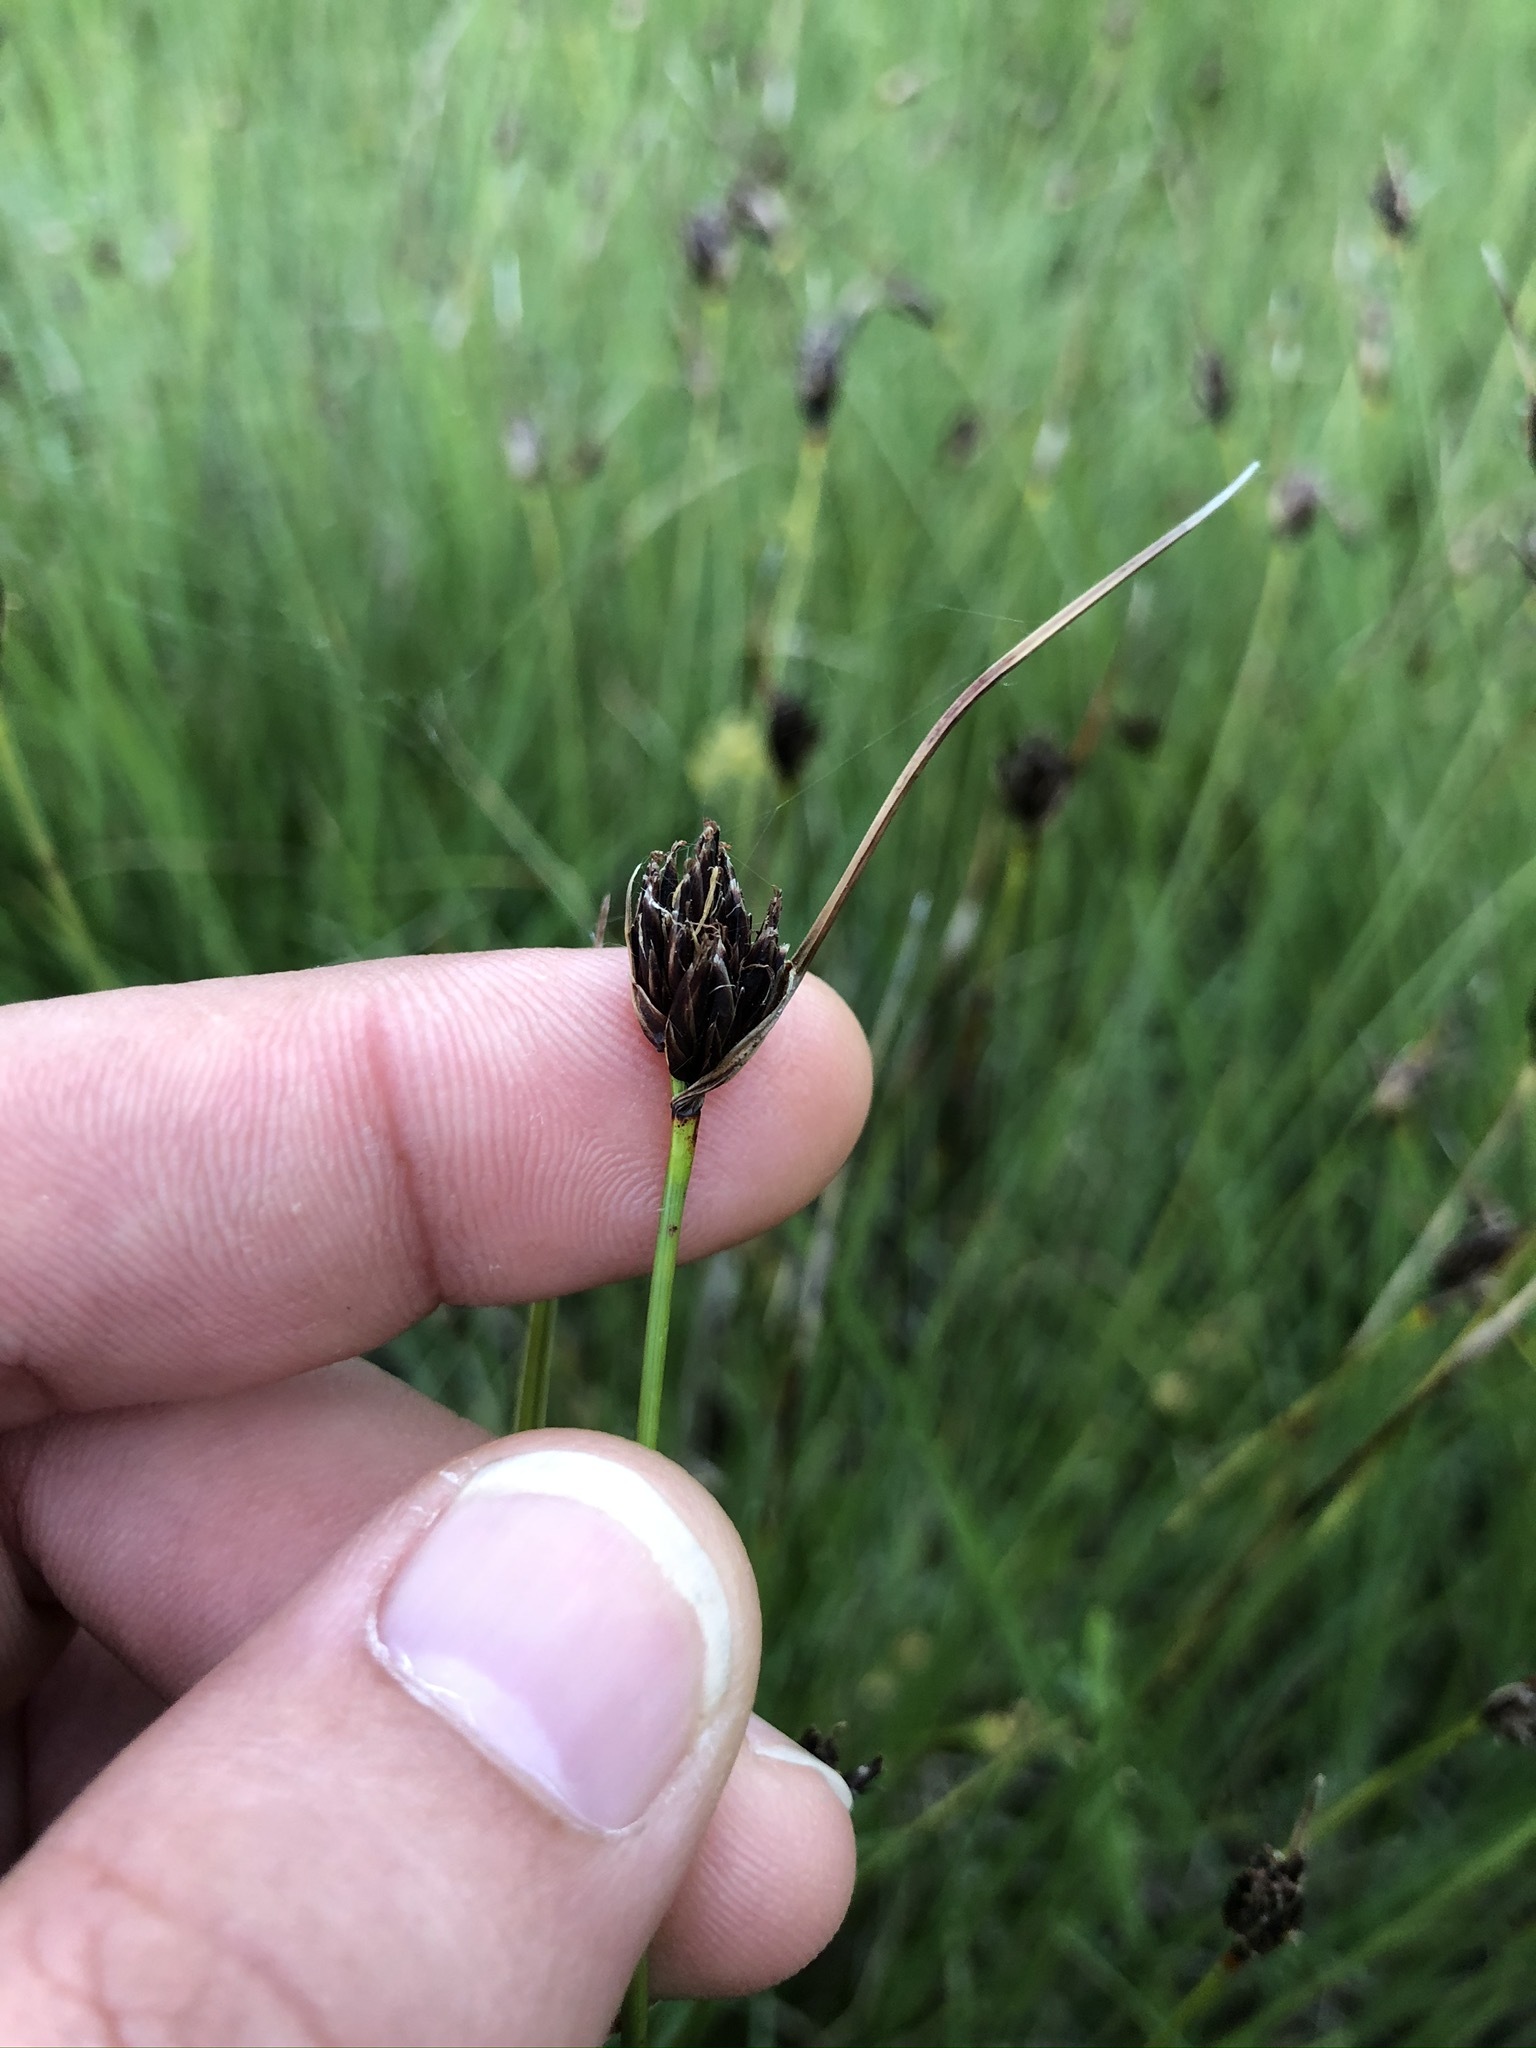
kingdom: Plantae
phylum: Tracheophyta
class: Liliopsida
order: Poales
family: Cyperaceae
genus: Schoenus
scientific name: Schoenus nigricans
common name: Black bog-rush
